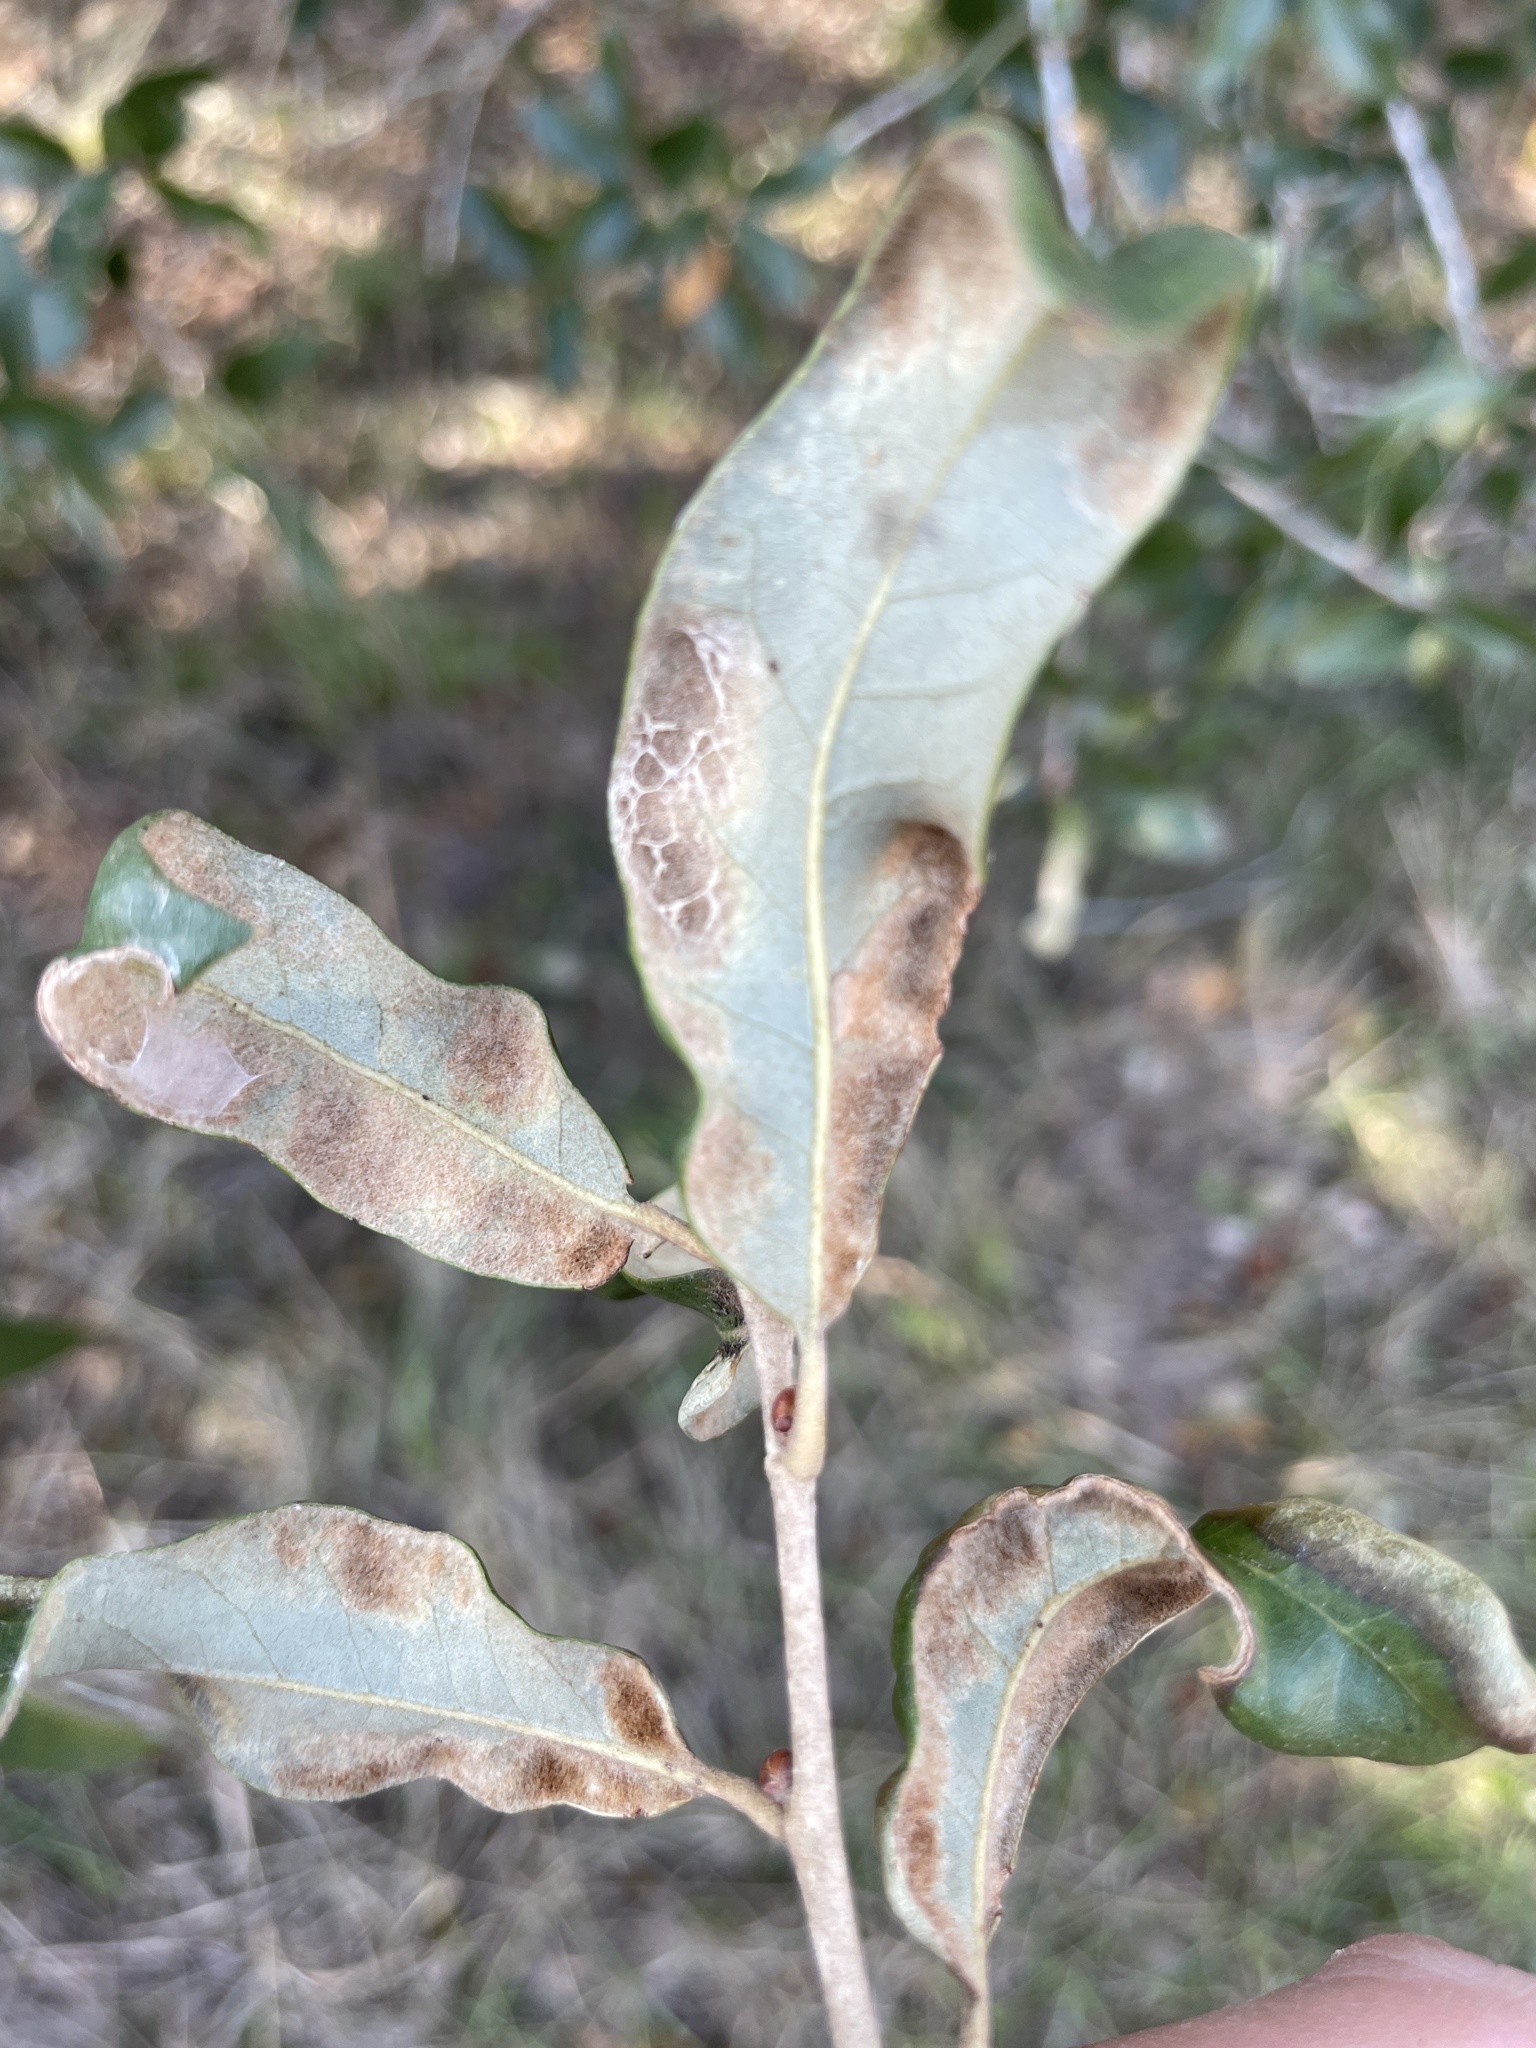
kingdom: Animalia
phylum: Arthropoda
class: Arachnida
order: Trombidiformes
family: Eriophyidae
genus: Aceria
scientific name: Aceria quercina
